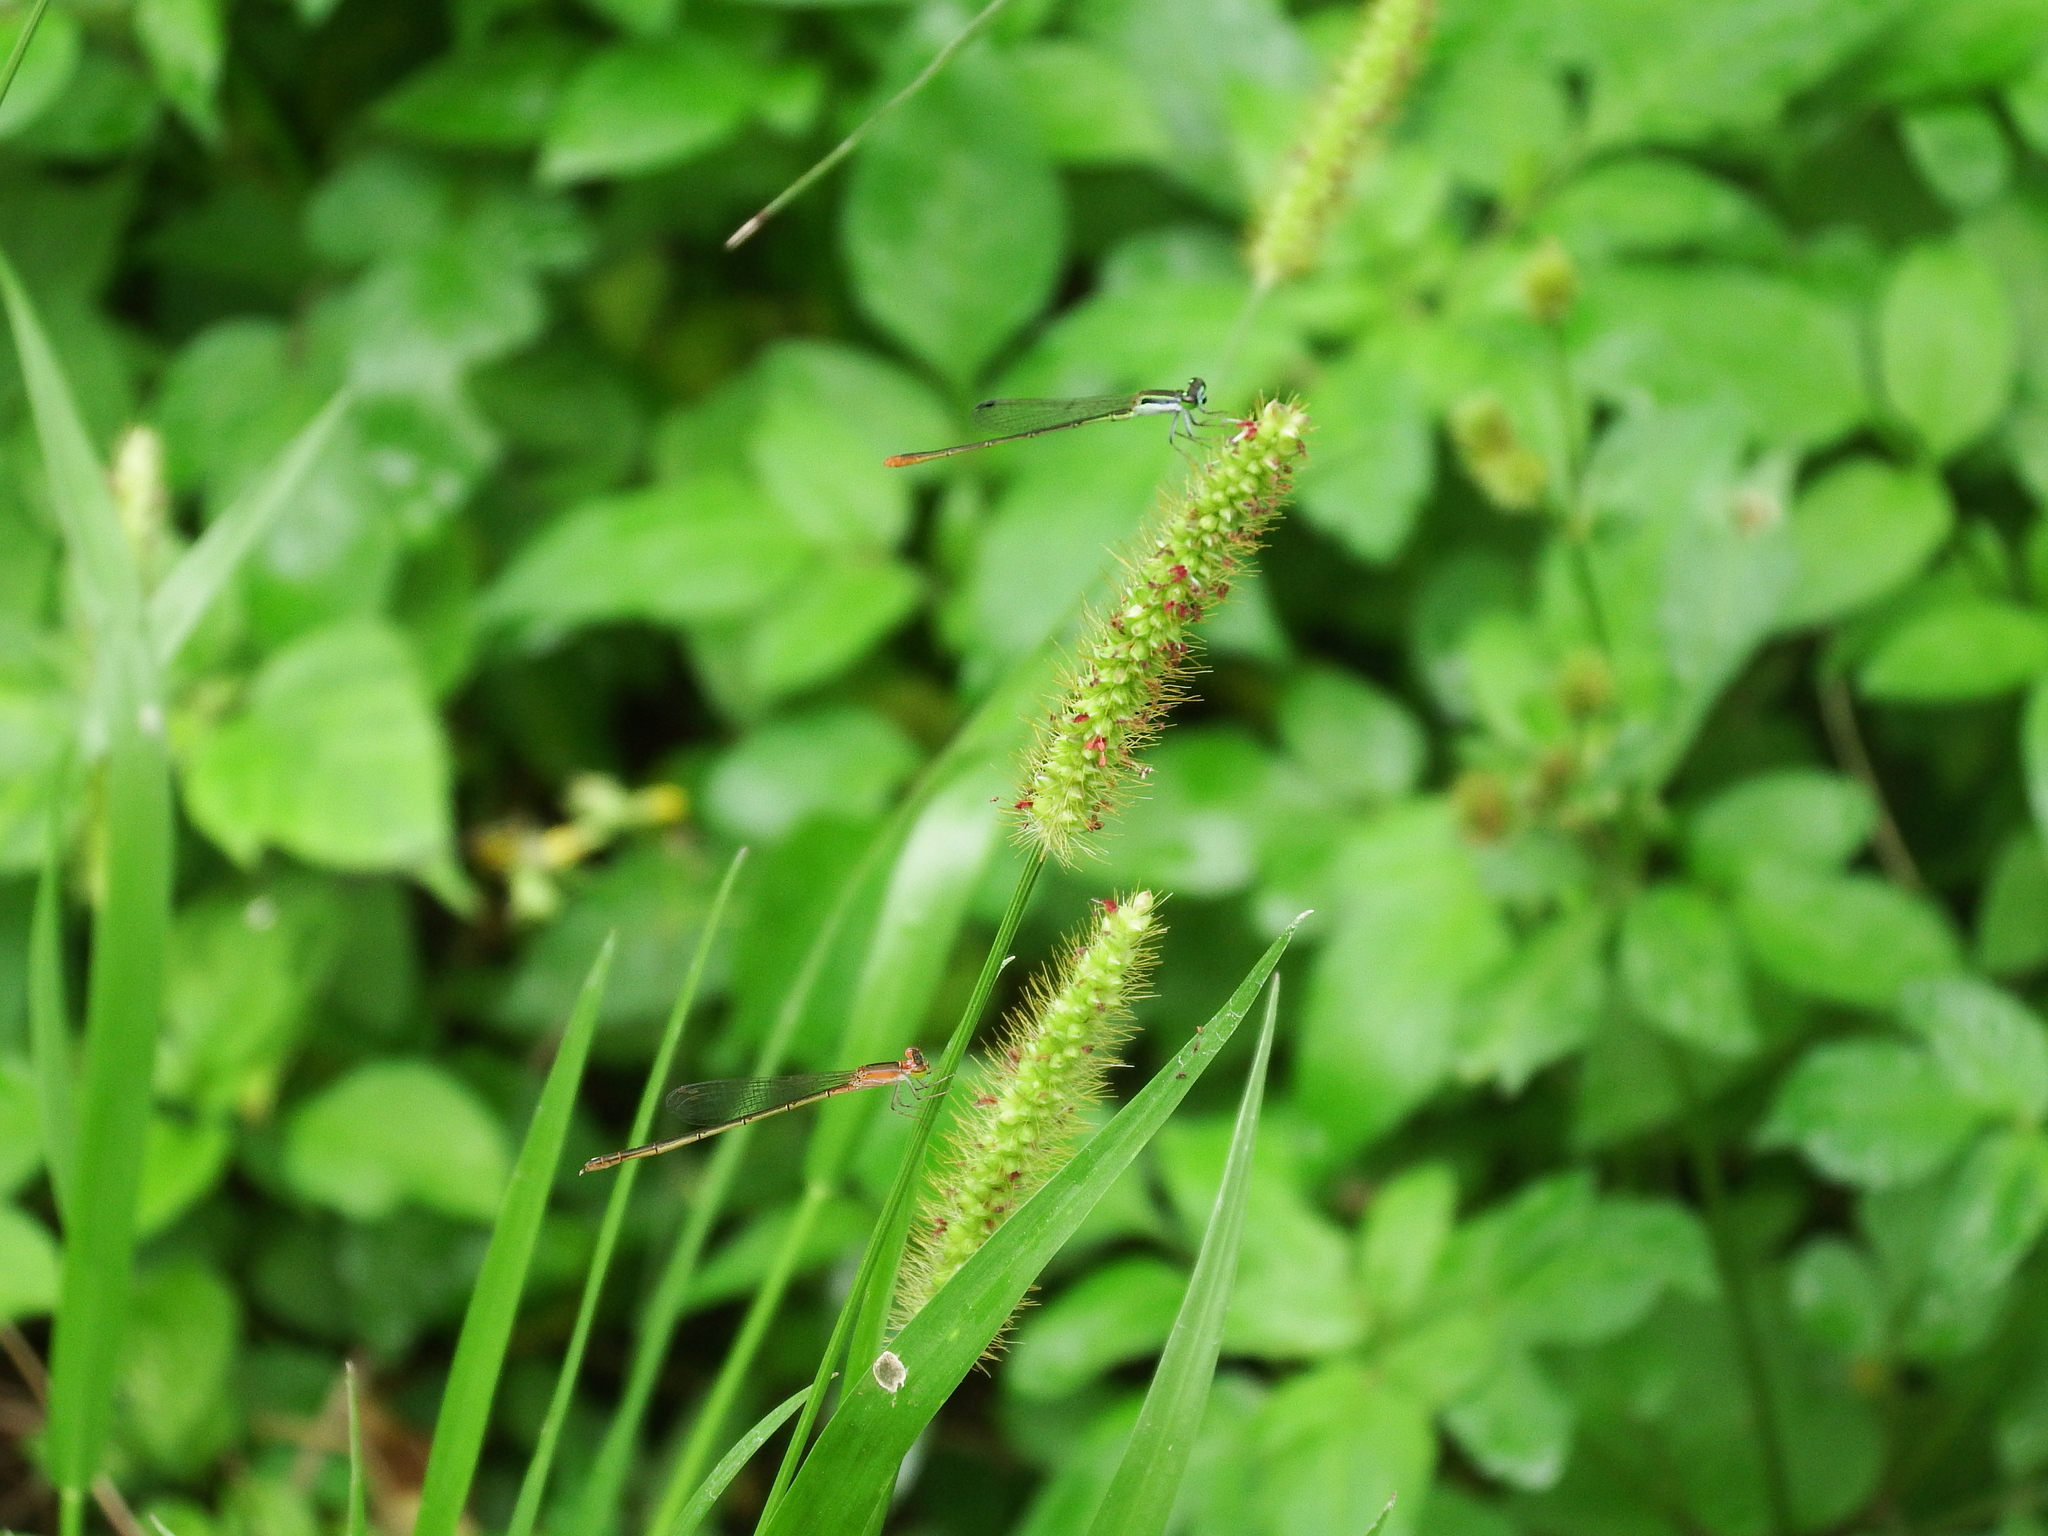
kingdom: Animalia
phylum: Arthropoda
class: Insecta
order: Odonata
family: Coenagrionidae
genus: Agriocnemis
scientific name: Agriocnemis pygmaea
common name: Pygmy wisp
